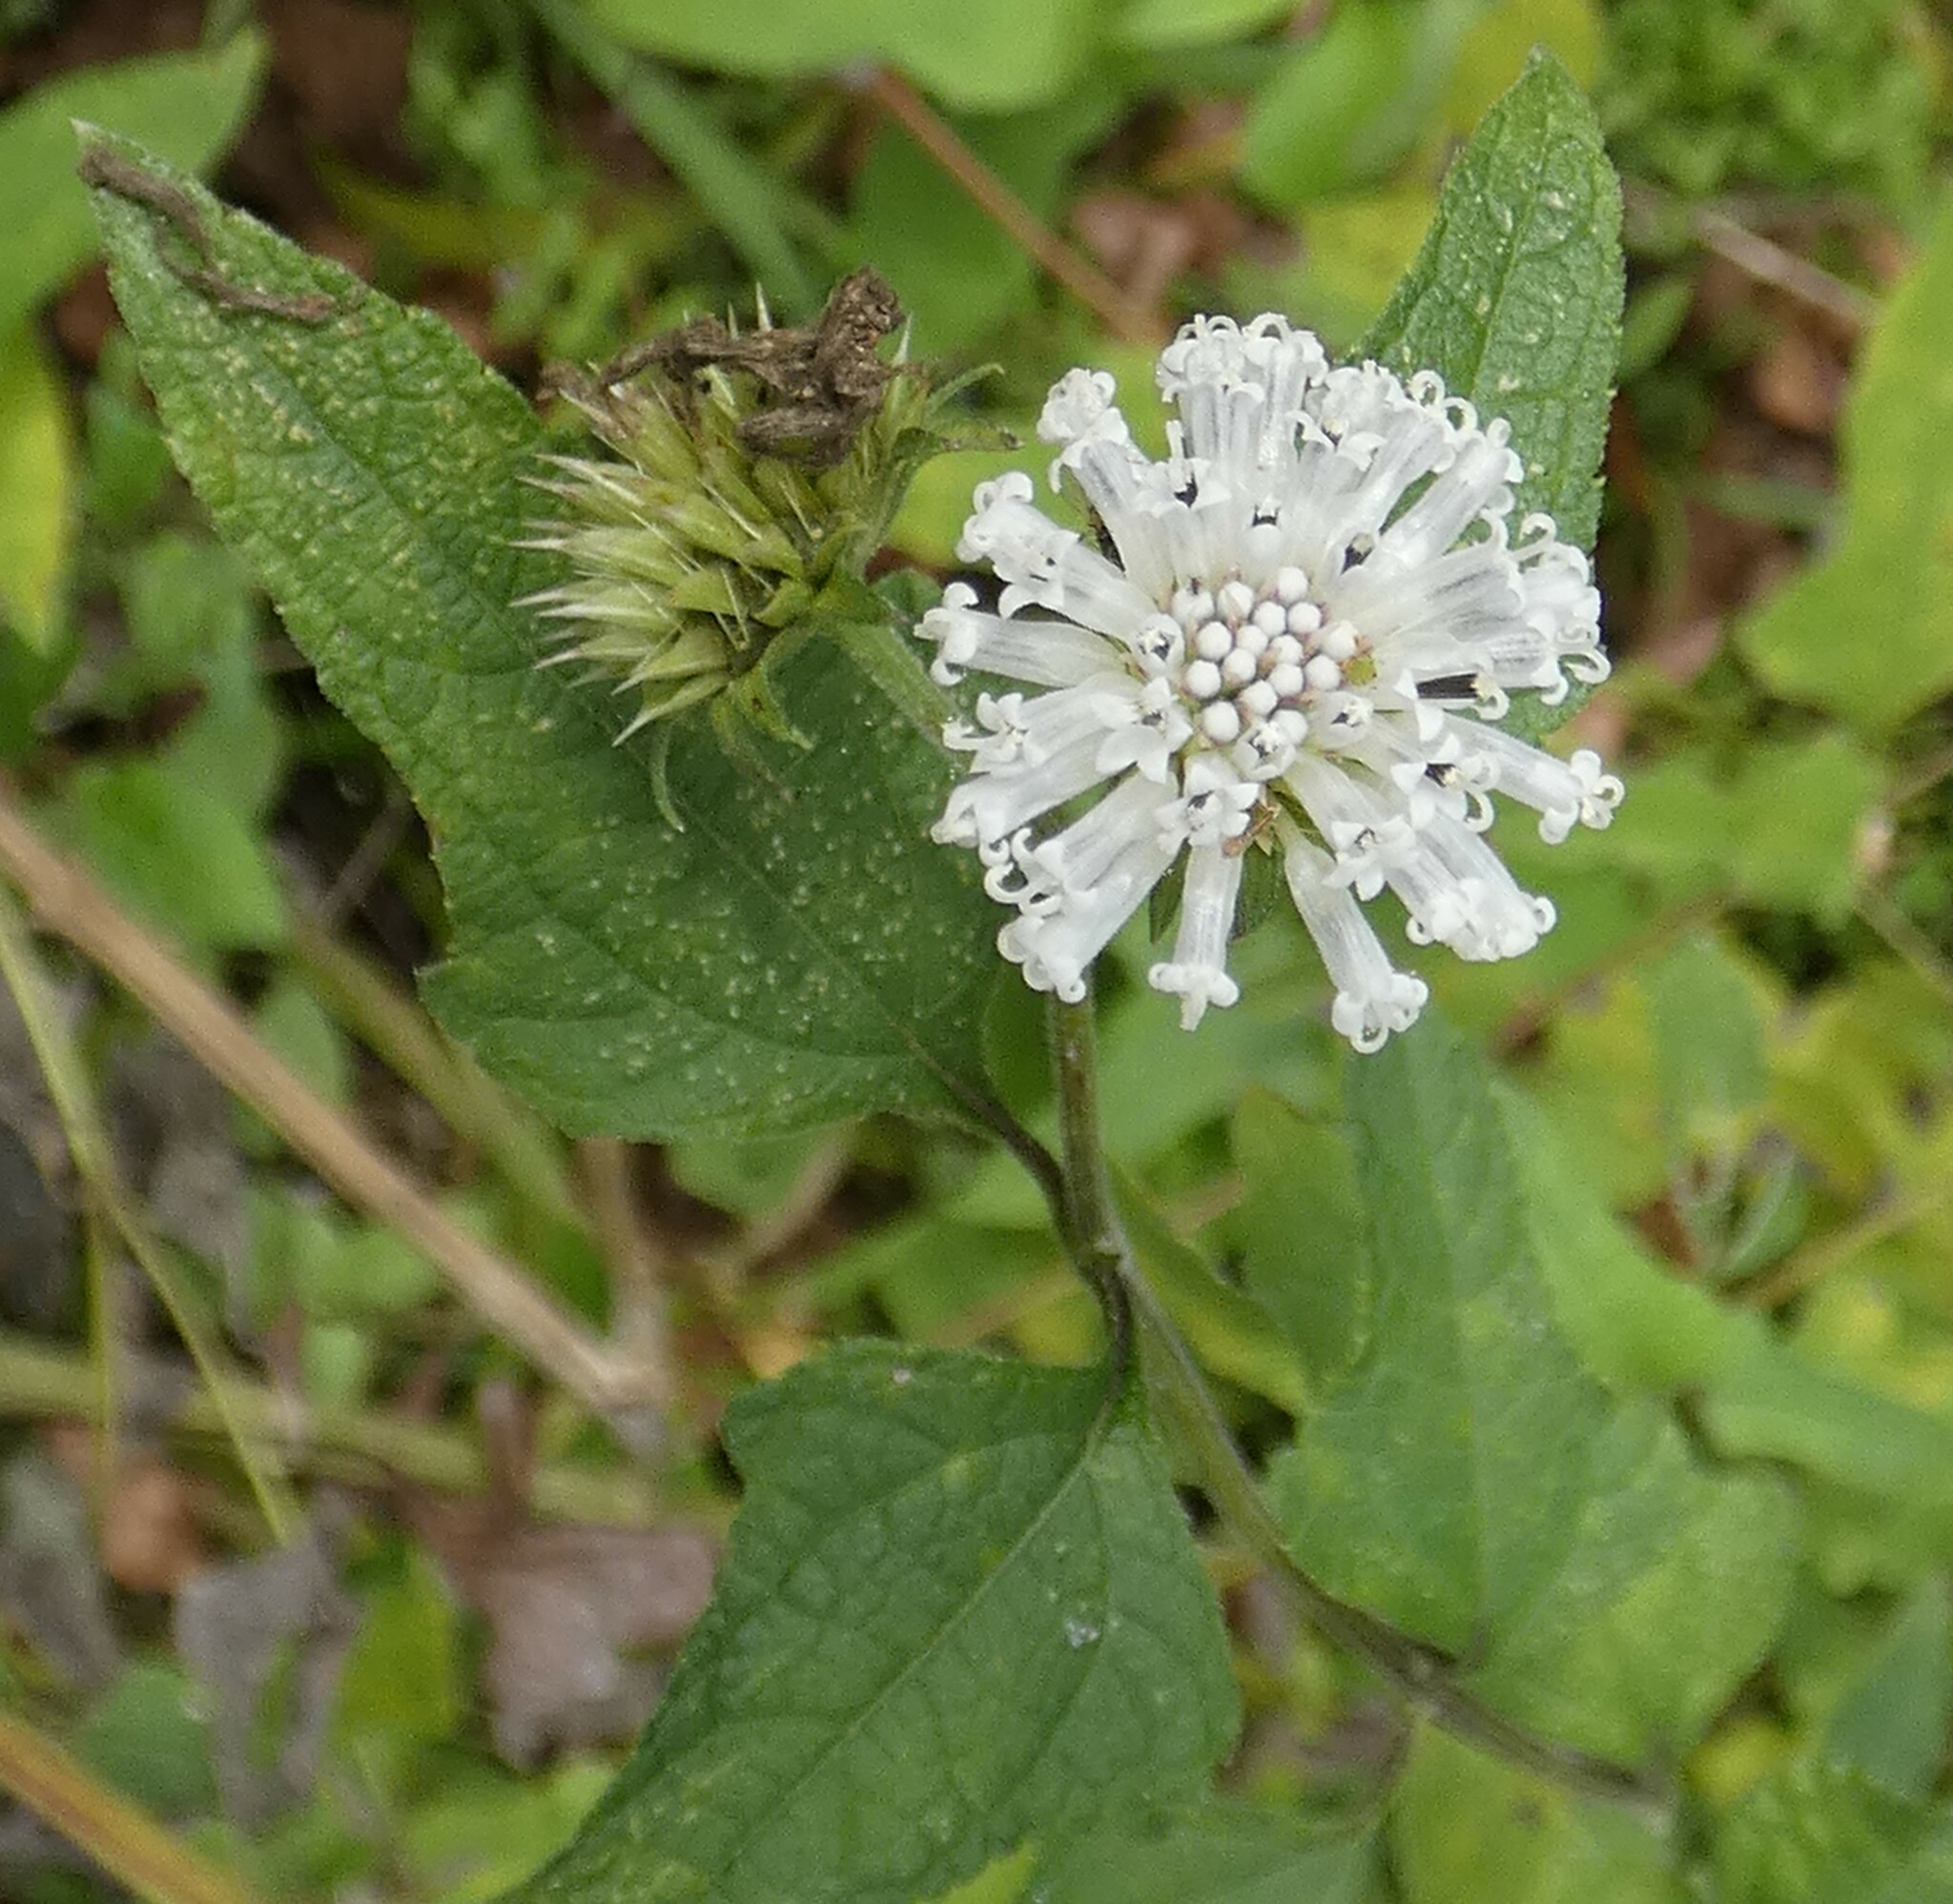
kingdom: Plantae
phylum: Tracheophyta
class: Magnoliopsida
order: Asterales
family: Asteraceae
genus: Melanthera
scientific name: Melanthera nivea
